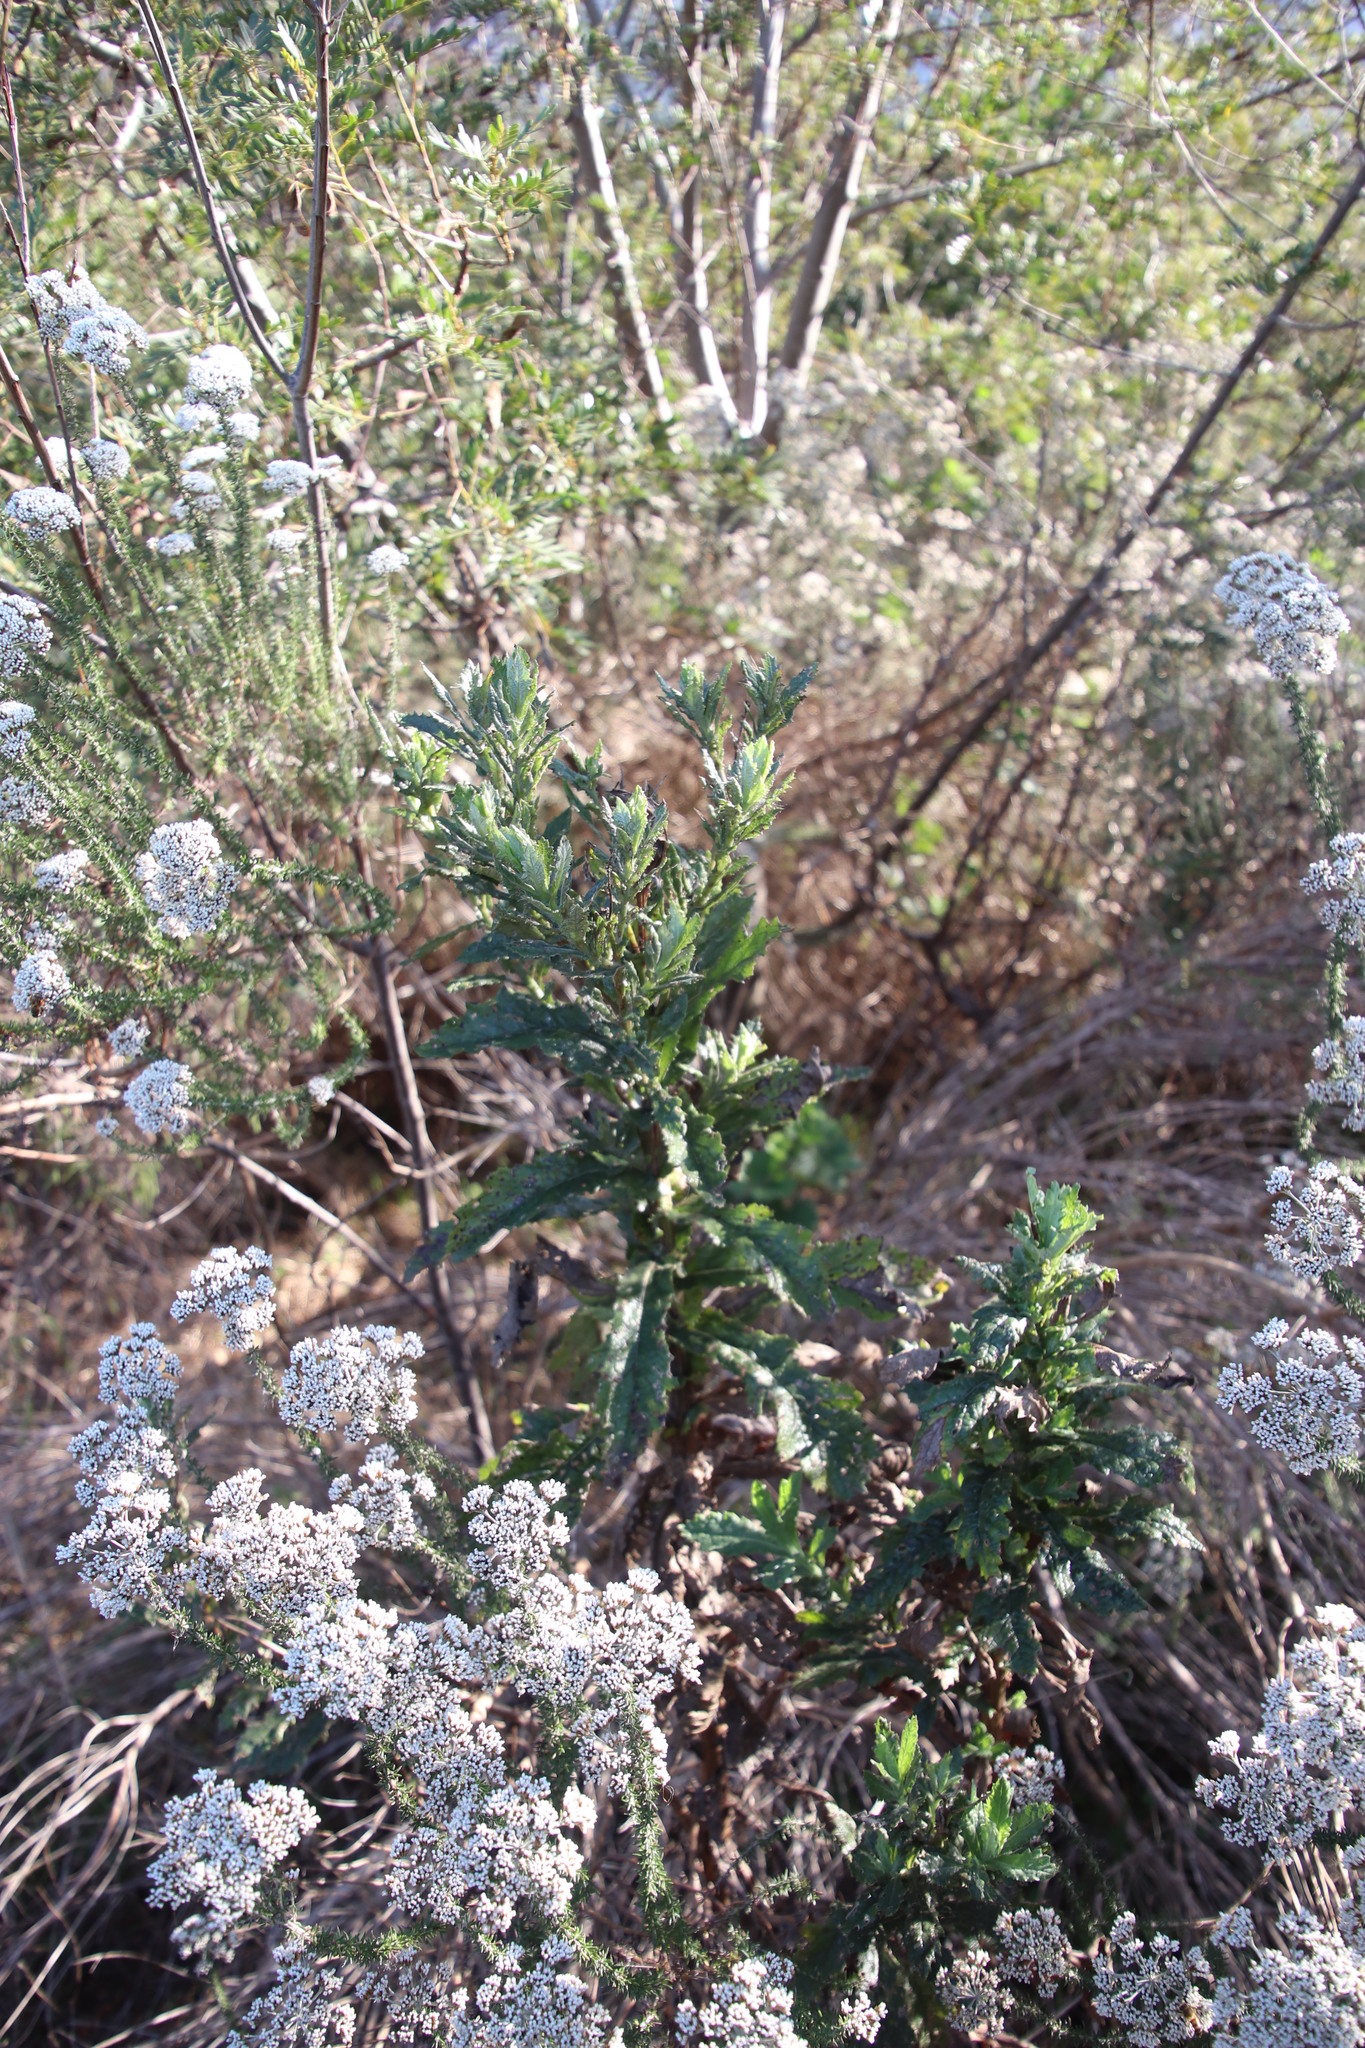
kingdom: Plantae
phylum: Tracheophyta
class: Magnoliopsida
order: Asterales
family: Asteraceae
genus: Senecio
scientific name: Senecio rigidus
